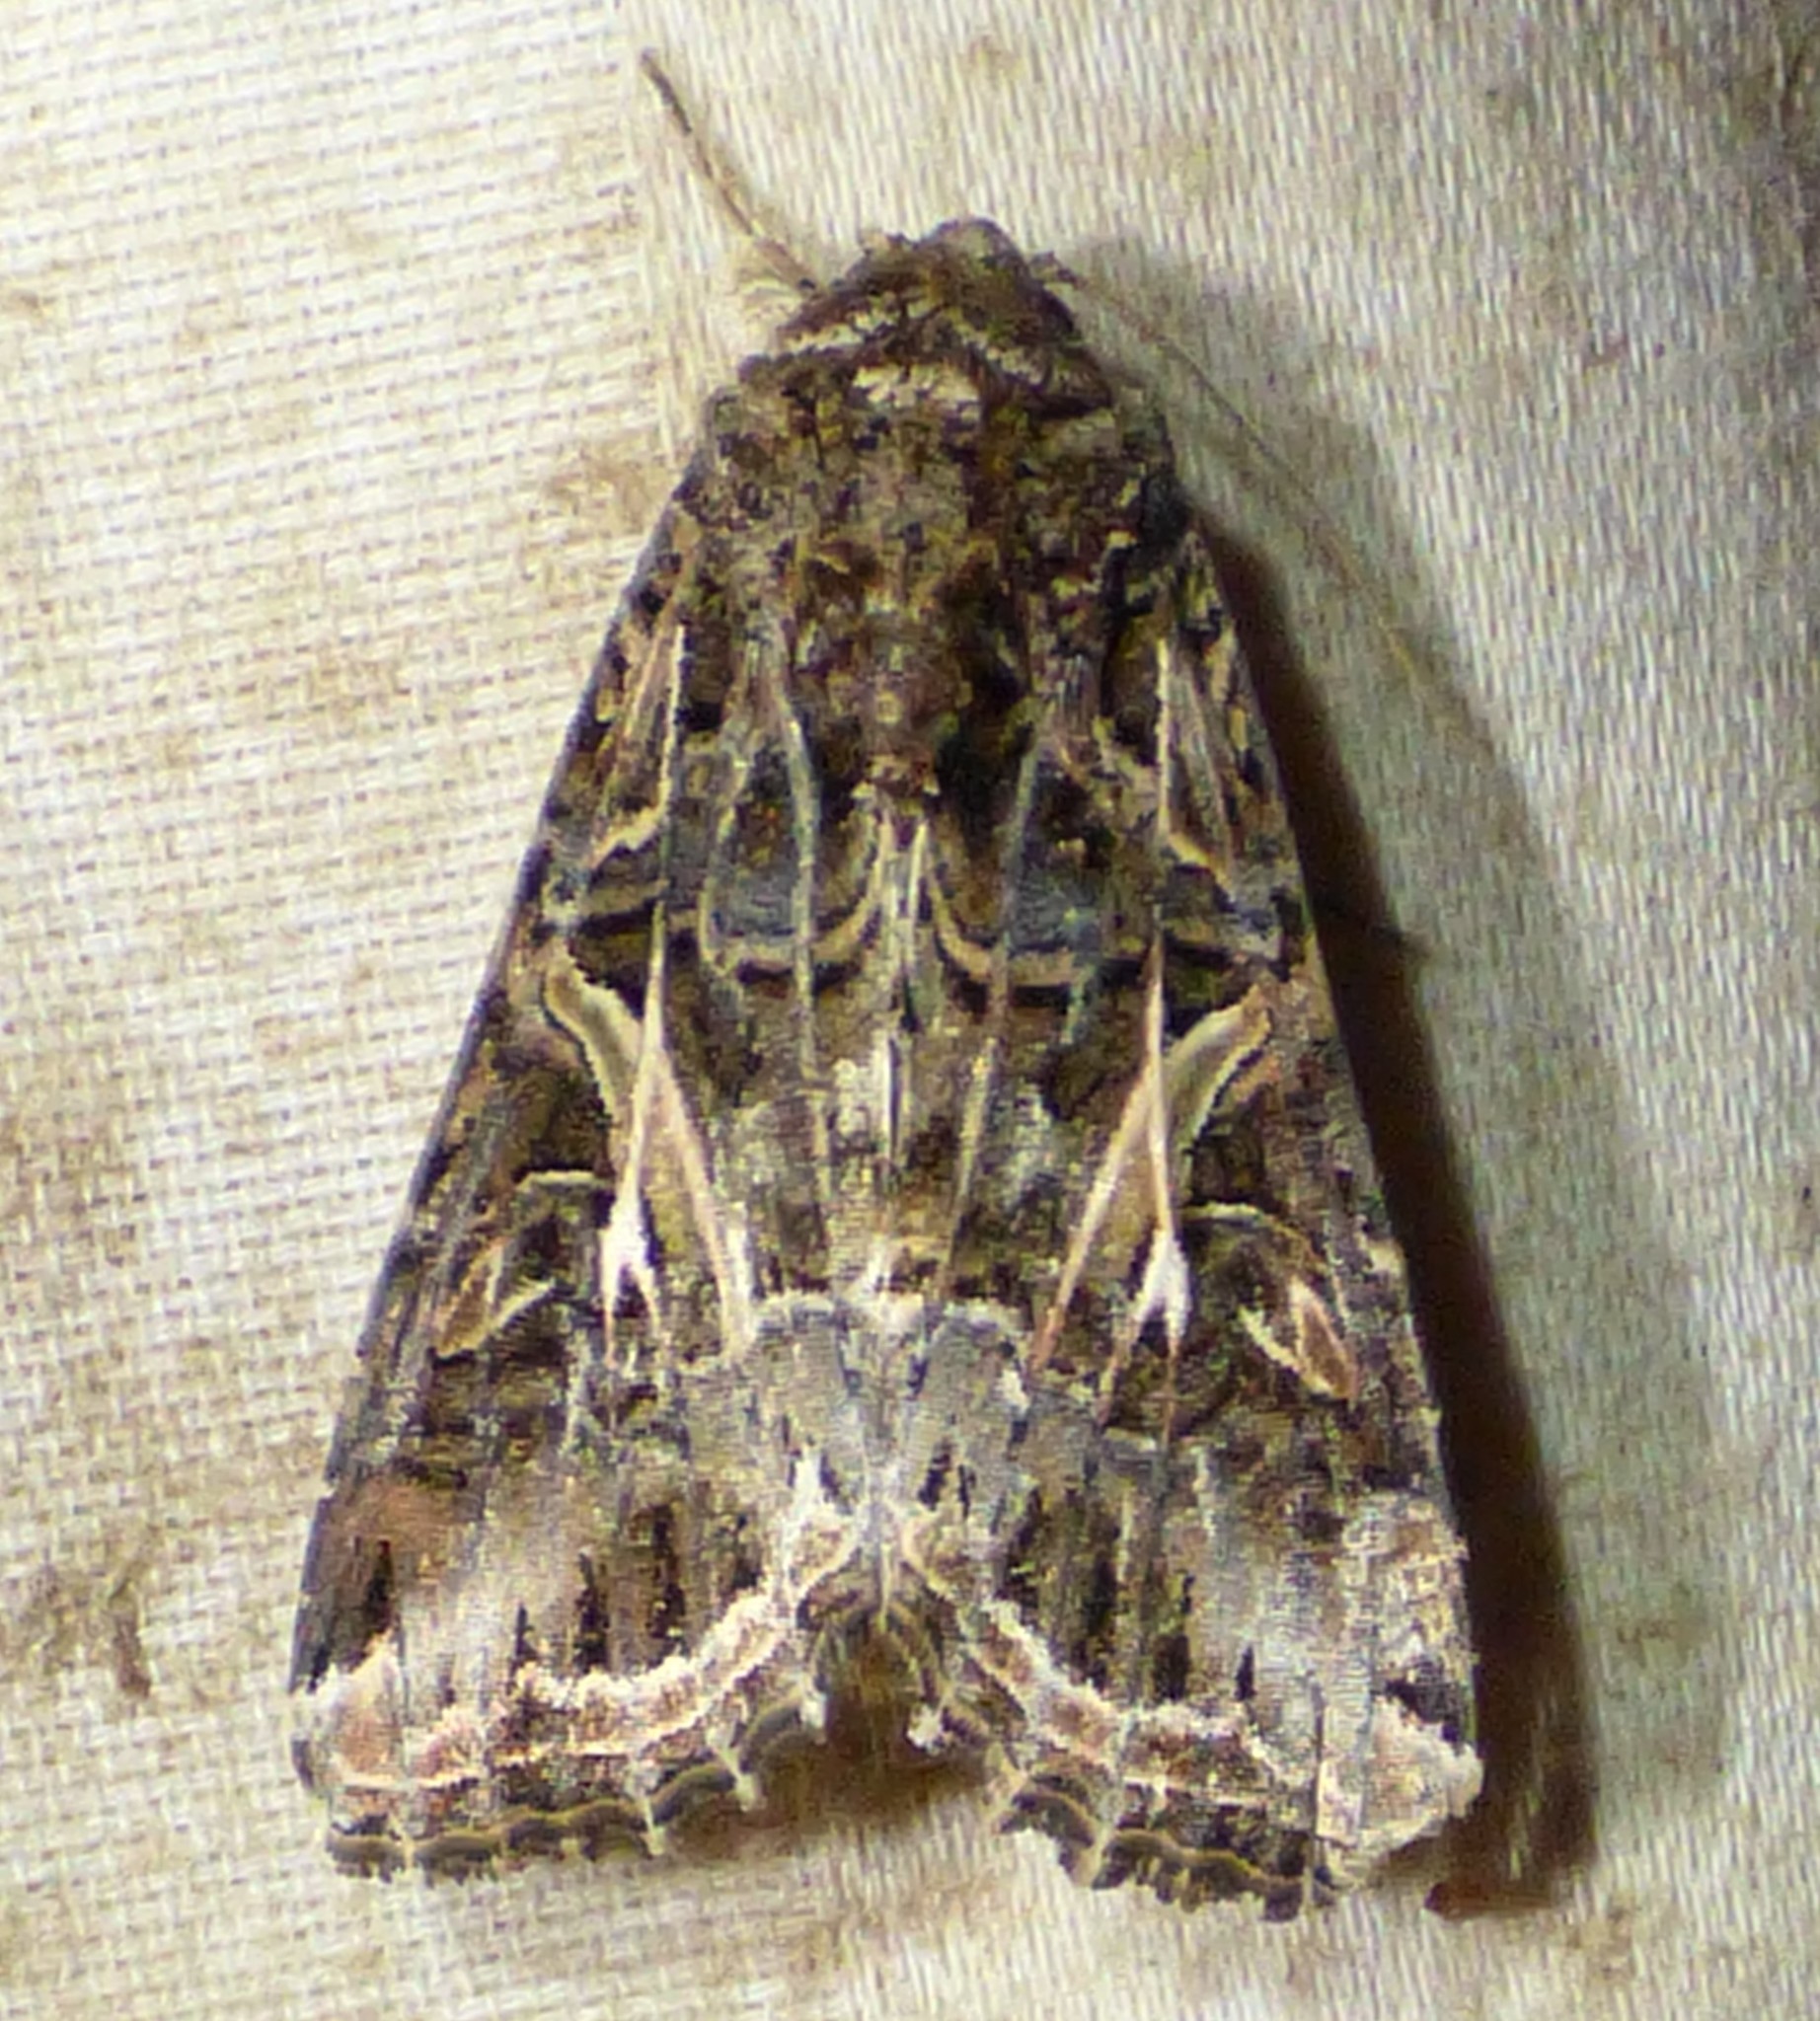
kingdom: Animalia
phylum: Arthropoda
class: Insecta
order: Lepidoptera
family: Noctuidae
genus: Spodoptera
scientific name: Spodoptera ornithogalli
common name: Yellow-striped armyworm
